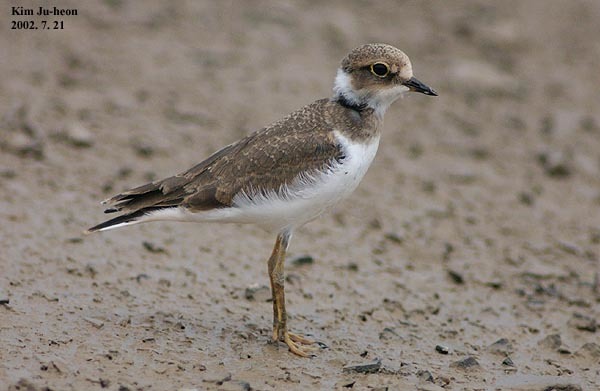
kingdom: Animalia
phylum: Chordata
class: Aves
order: Charadriiformes
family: Charadriidae
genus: Charadrius
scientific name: Charadrius dubius
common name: Little ringed plover
